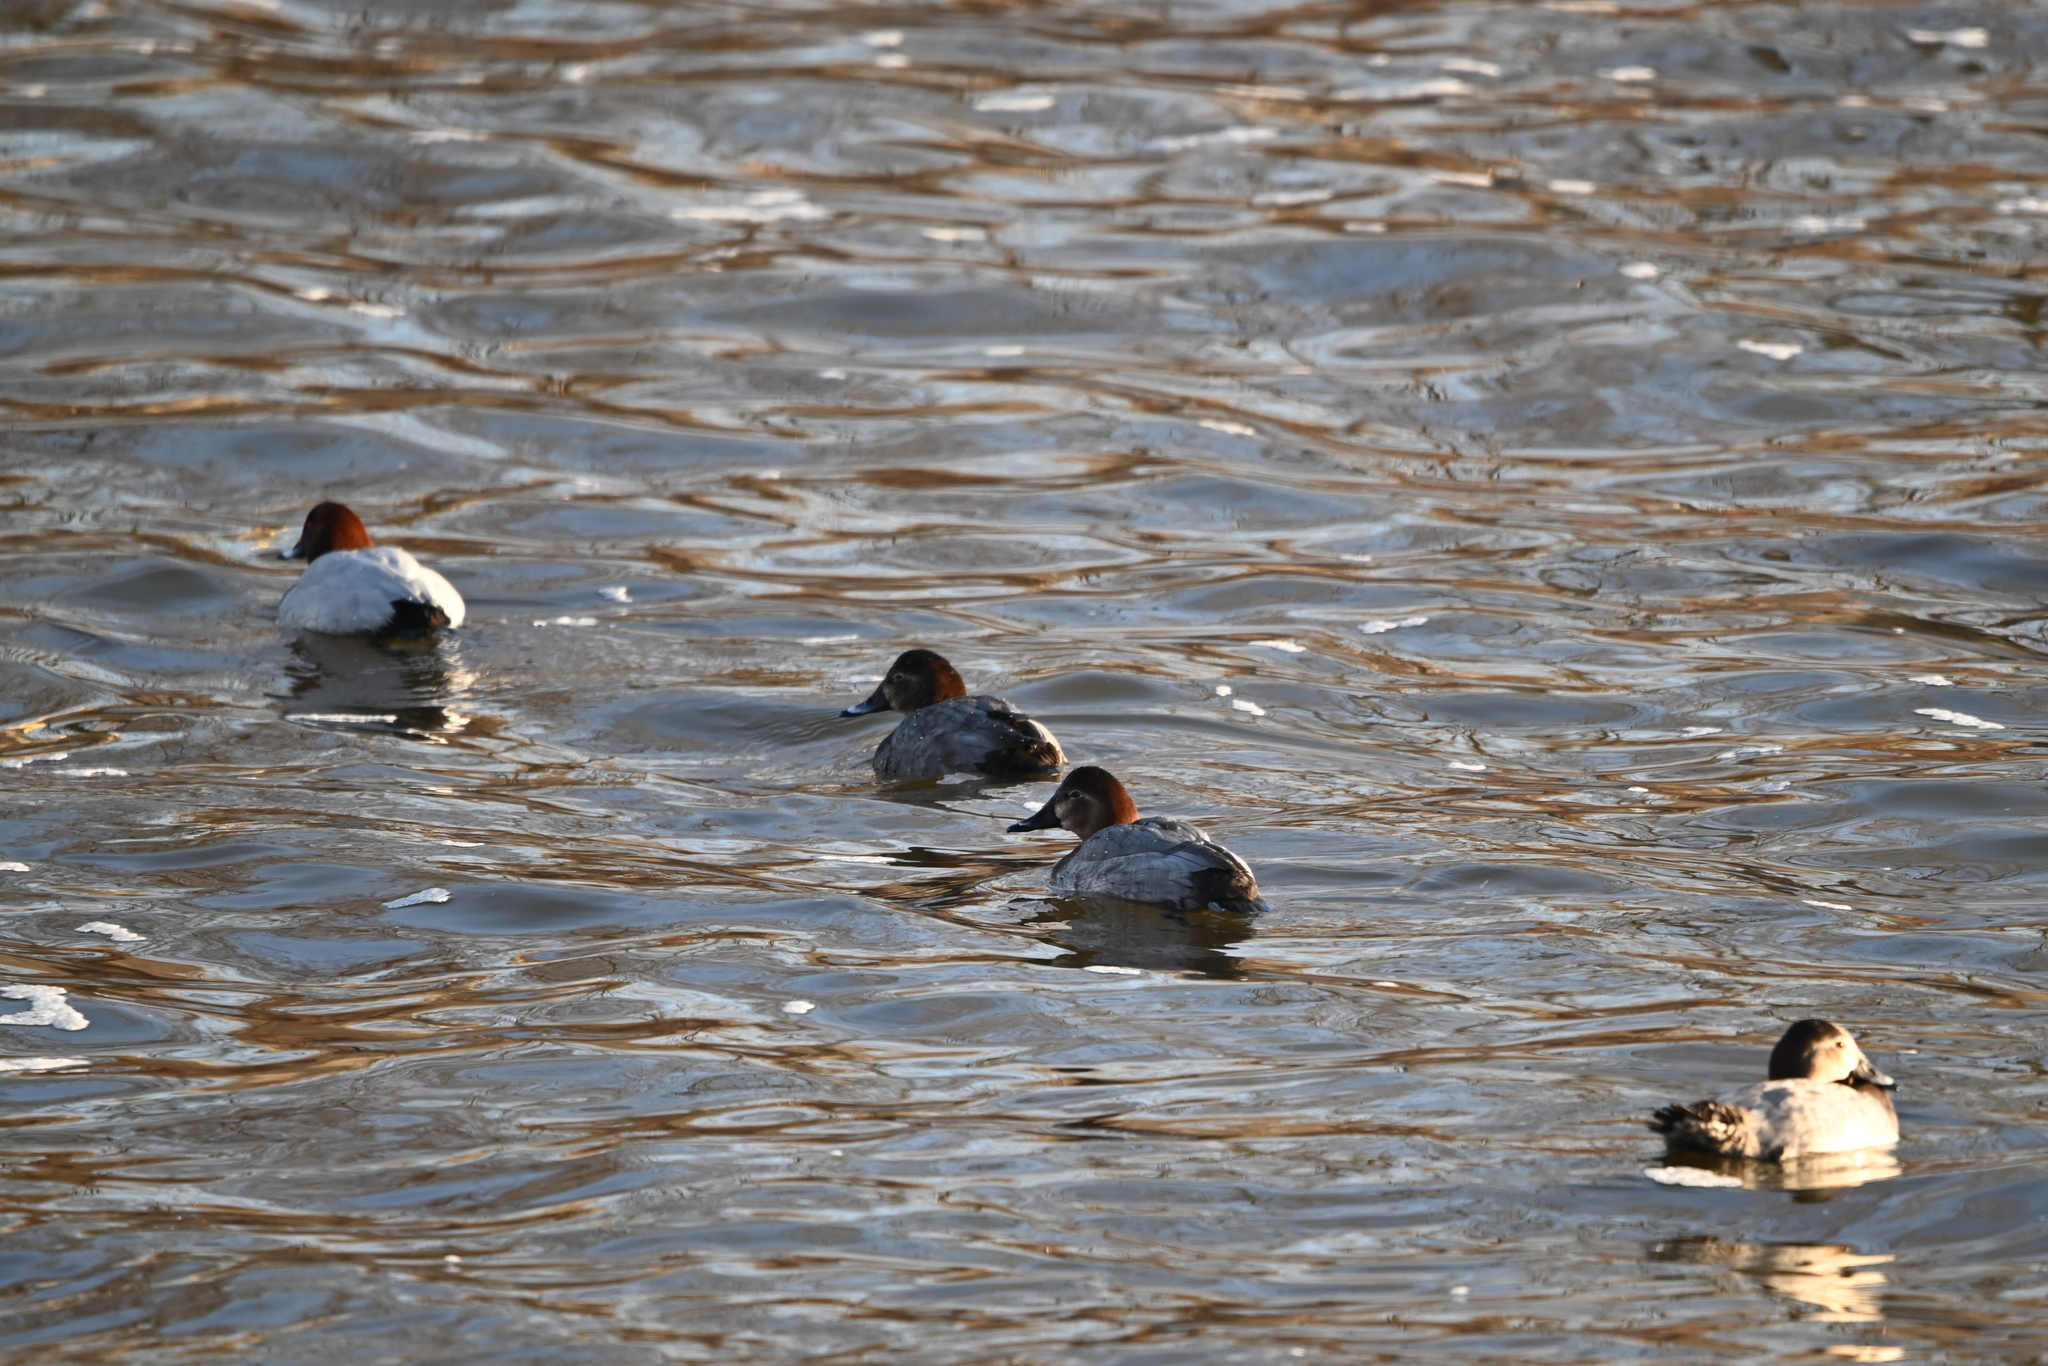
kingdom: Animalia
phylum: Chordata
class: Aves
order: Anseriformes
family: Anatidae
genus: Aythya
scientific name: Aythya ferina
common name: Common pochard
